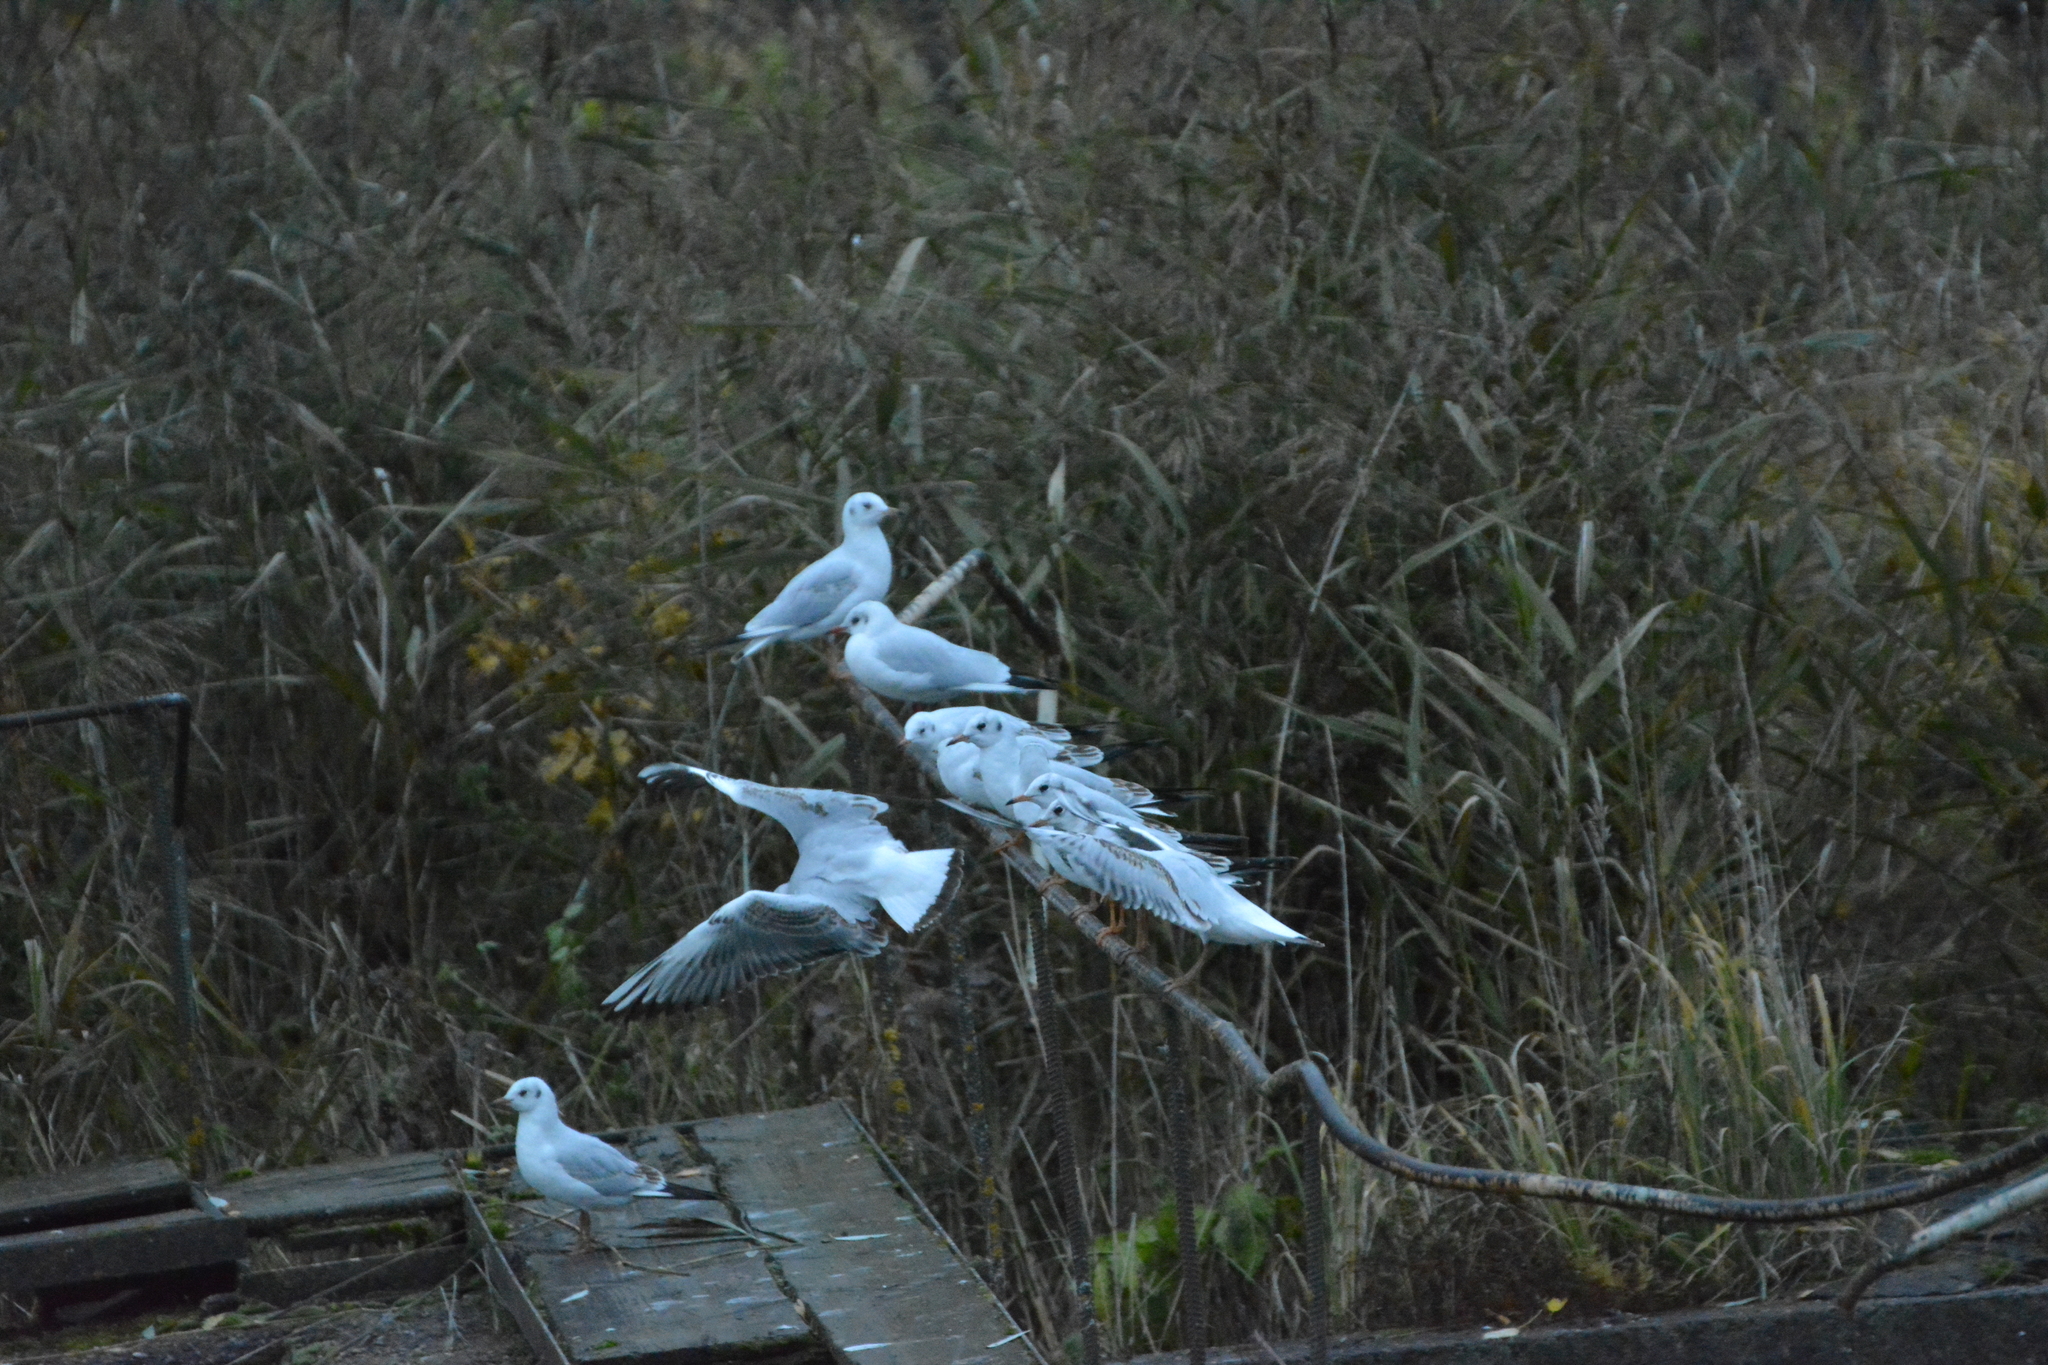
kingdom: Animalia
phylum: Chordata
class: Aves
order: Charadriiformes
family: Laridae
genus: Chroicocephalus
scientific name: Chroicocephalus ridibundus
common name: Black-headed gull
